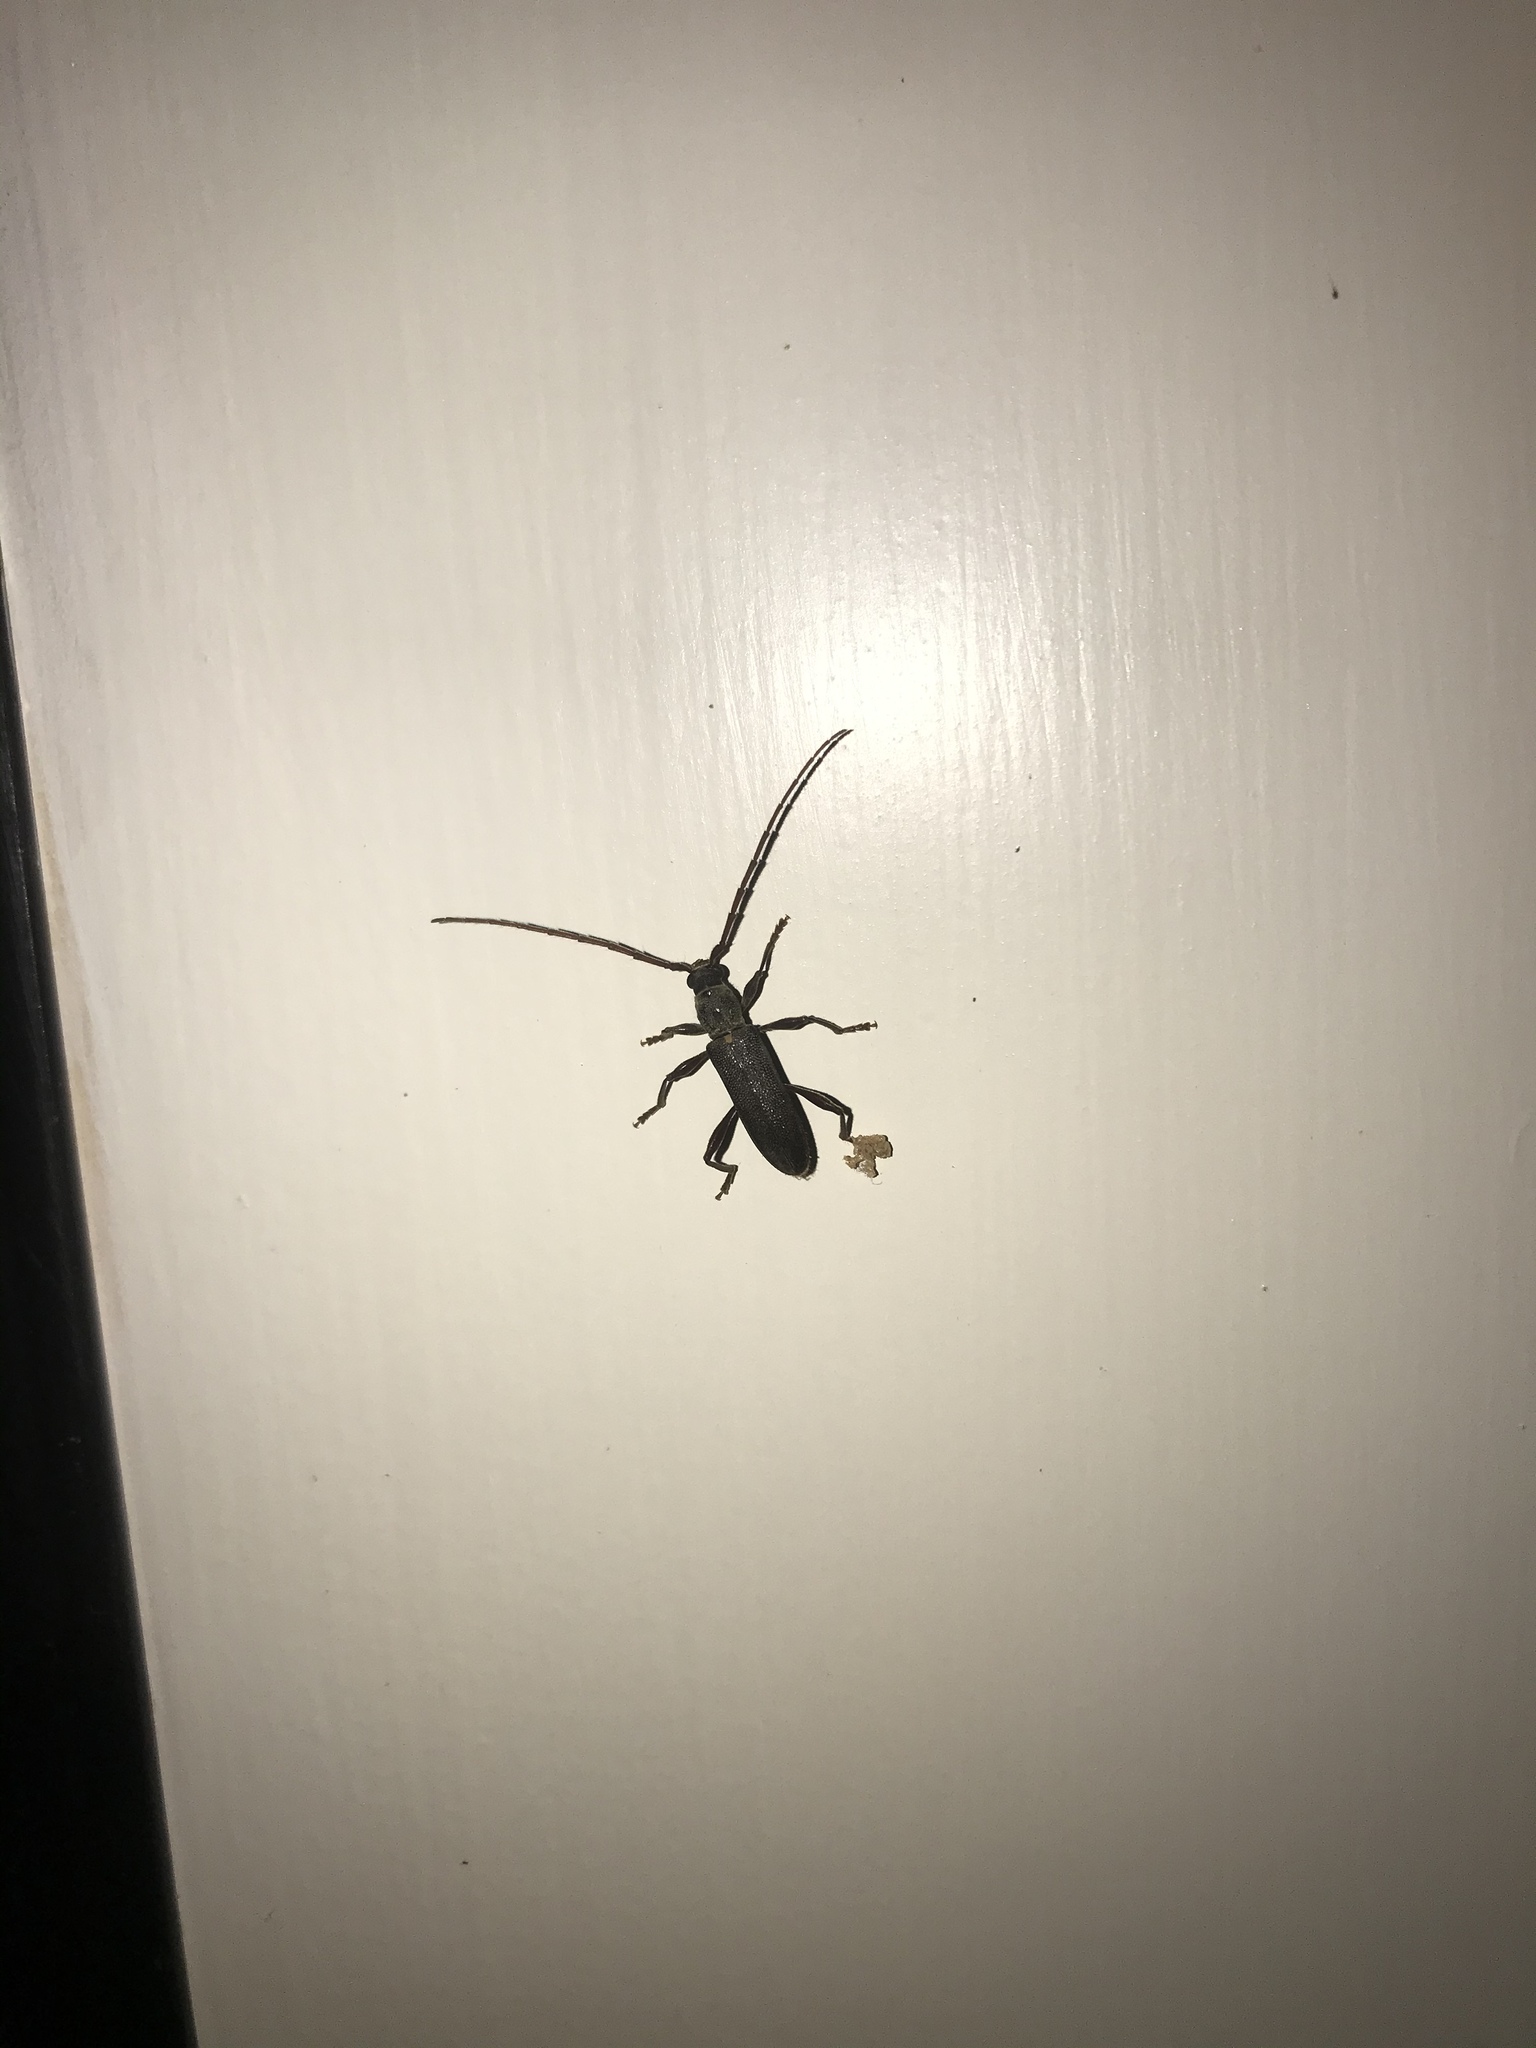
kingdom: Animalia
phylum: Arthropoda
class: Insecta
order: Coleoptera
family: Cerambycidae
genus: Callidiopis
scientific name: Callidiopis scutellaris
